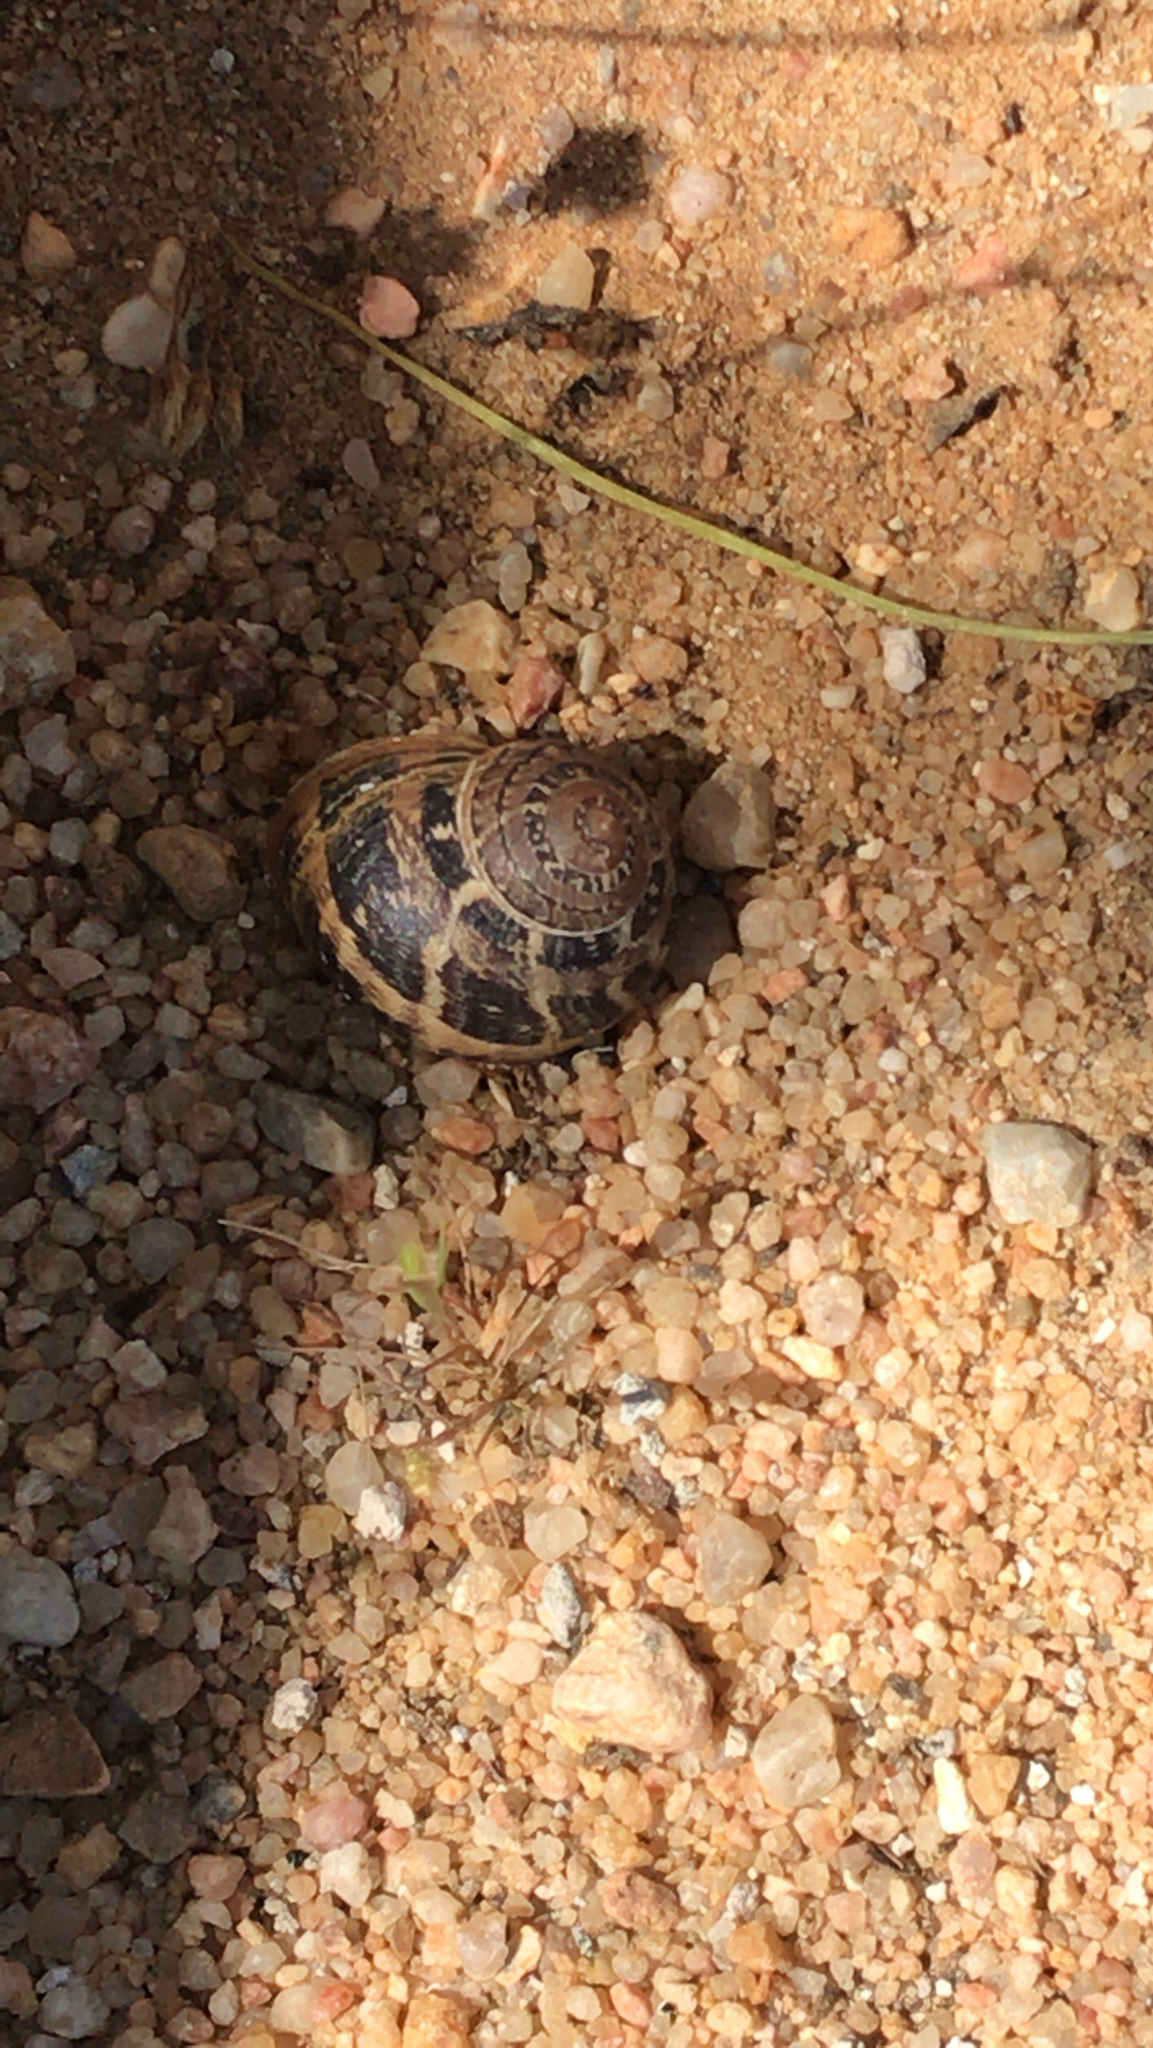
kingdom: Animalia
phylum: Mollusca
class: Gastropoda
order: Stylommatophora
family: Helicidae
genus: Cornu
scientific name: Cornu aspersum
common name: Brown garden snail
